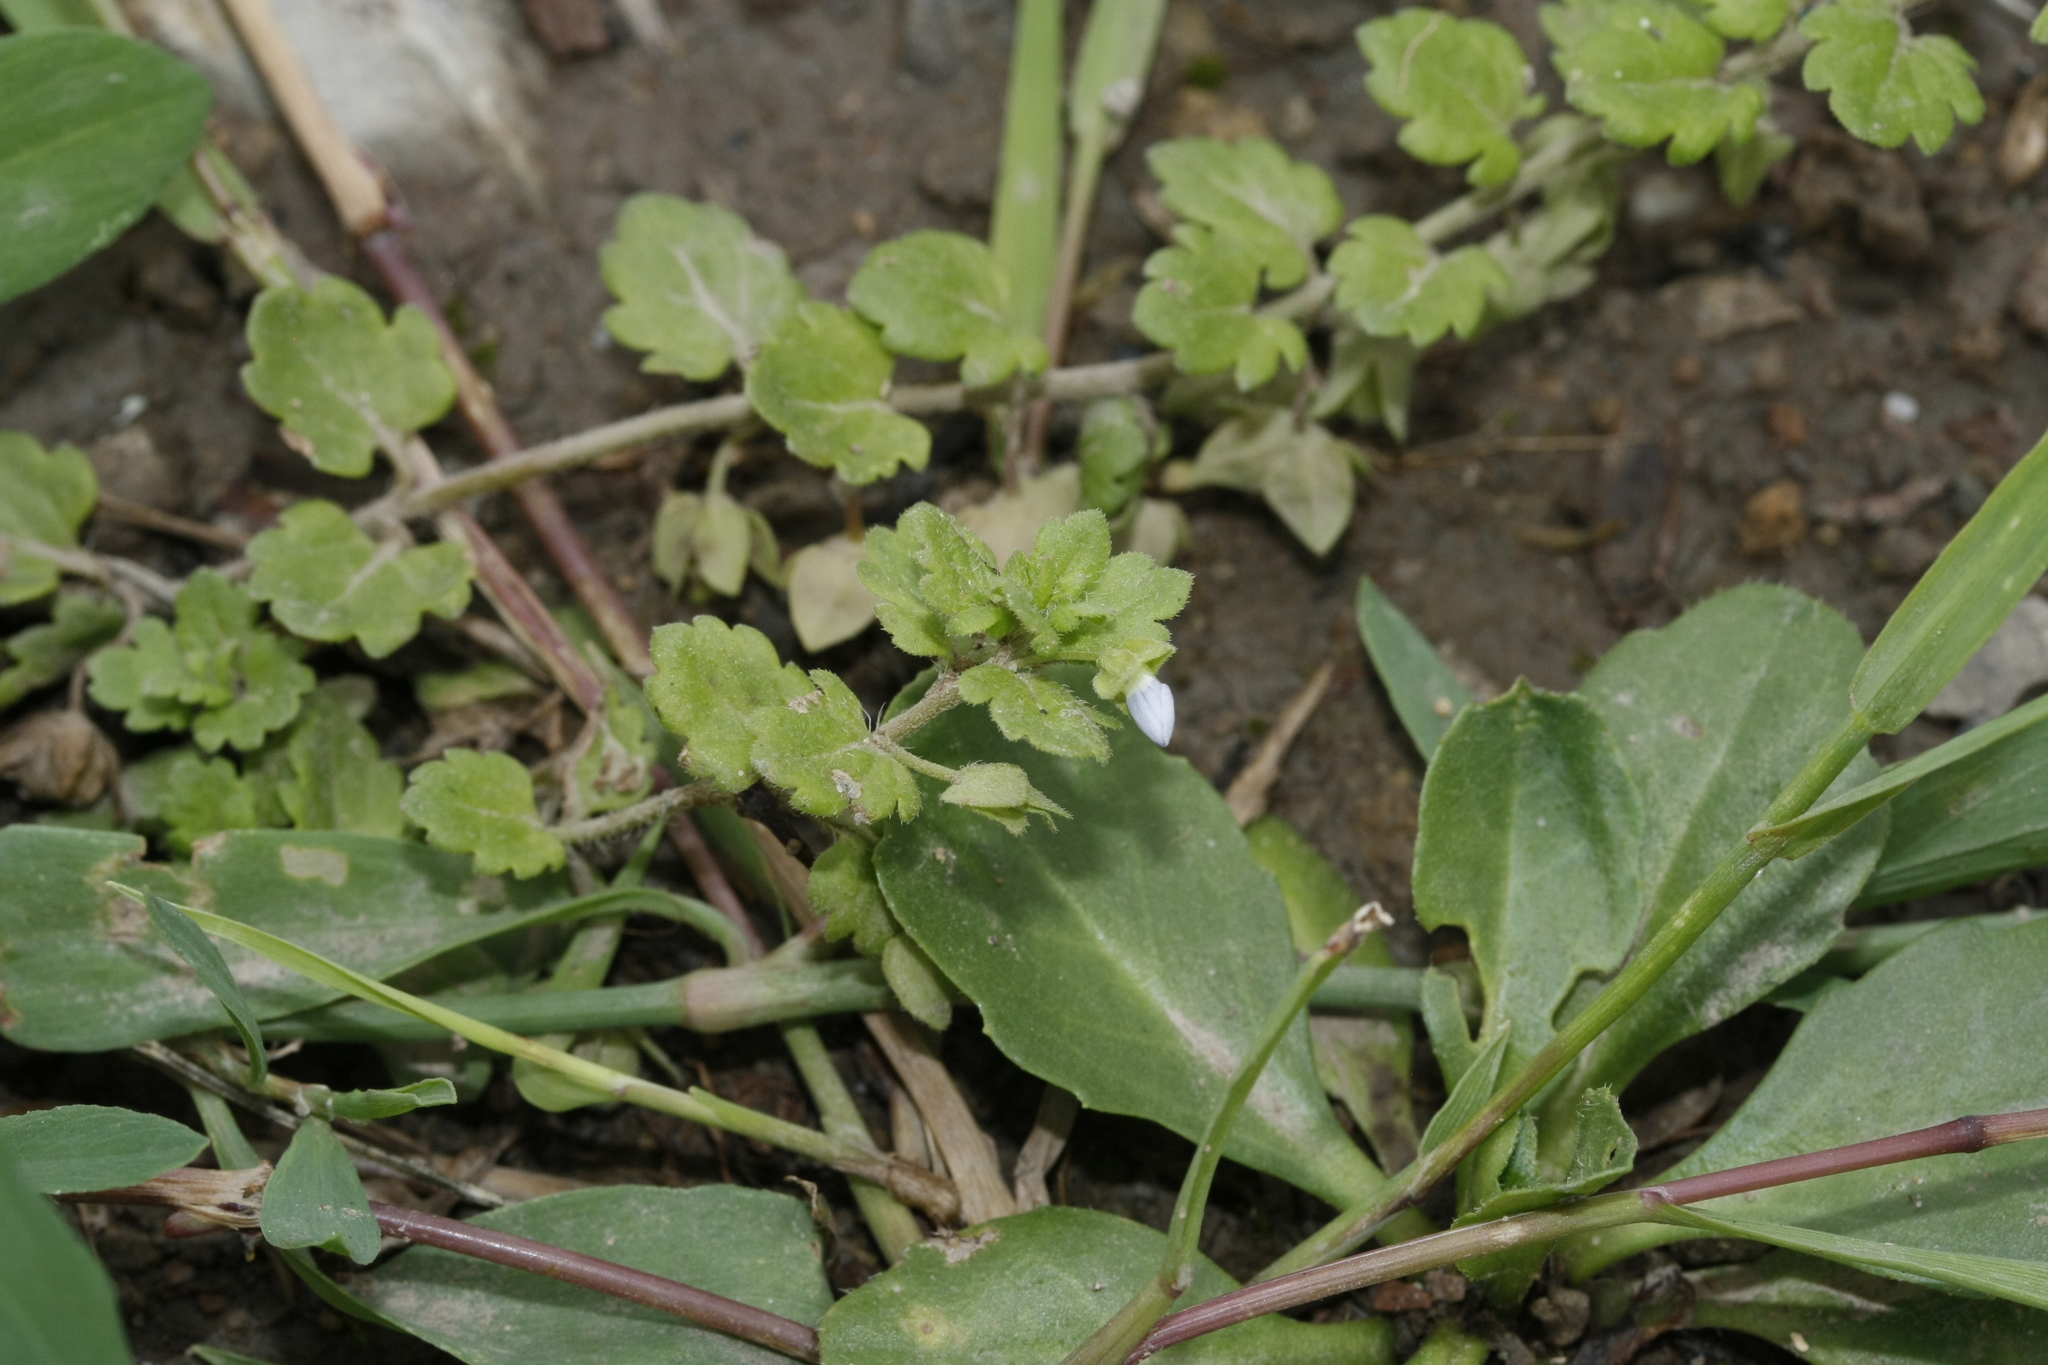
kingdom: Plantae
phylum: Tracheophyta
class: Magnoliopsida
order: Lamiales
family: Plantaginaceae
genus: Veronica
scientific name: Veronica polita
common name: Grey field-speedwell
